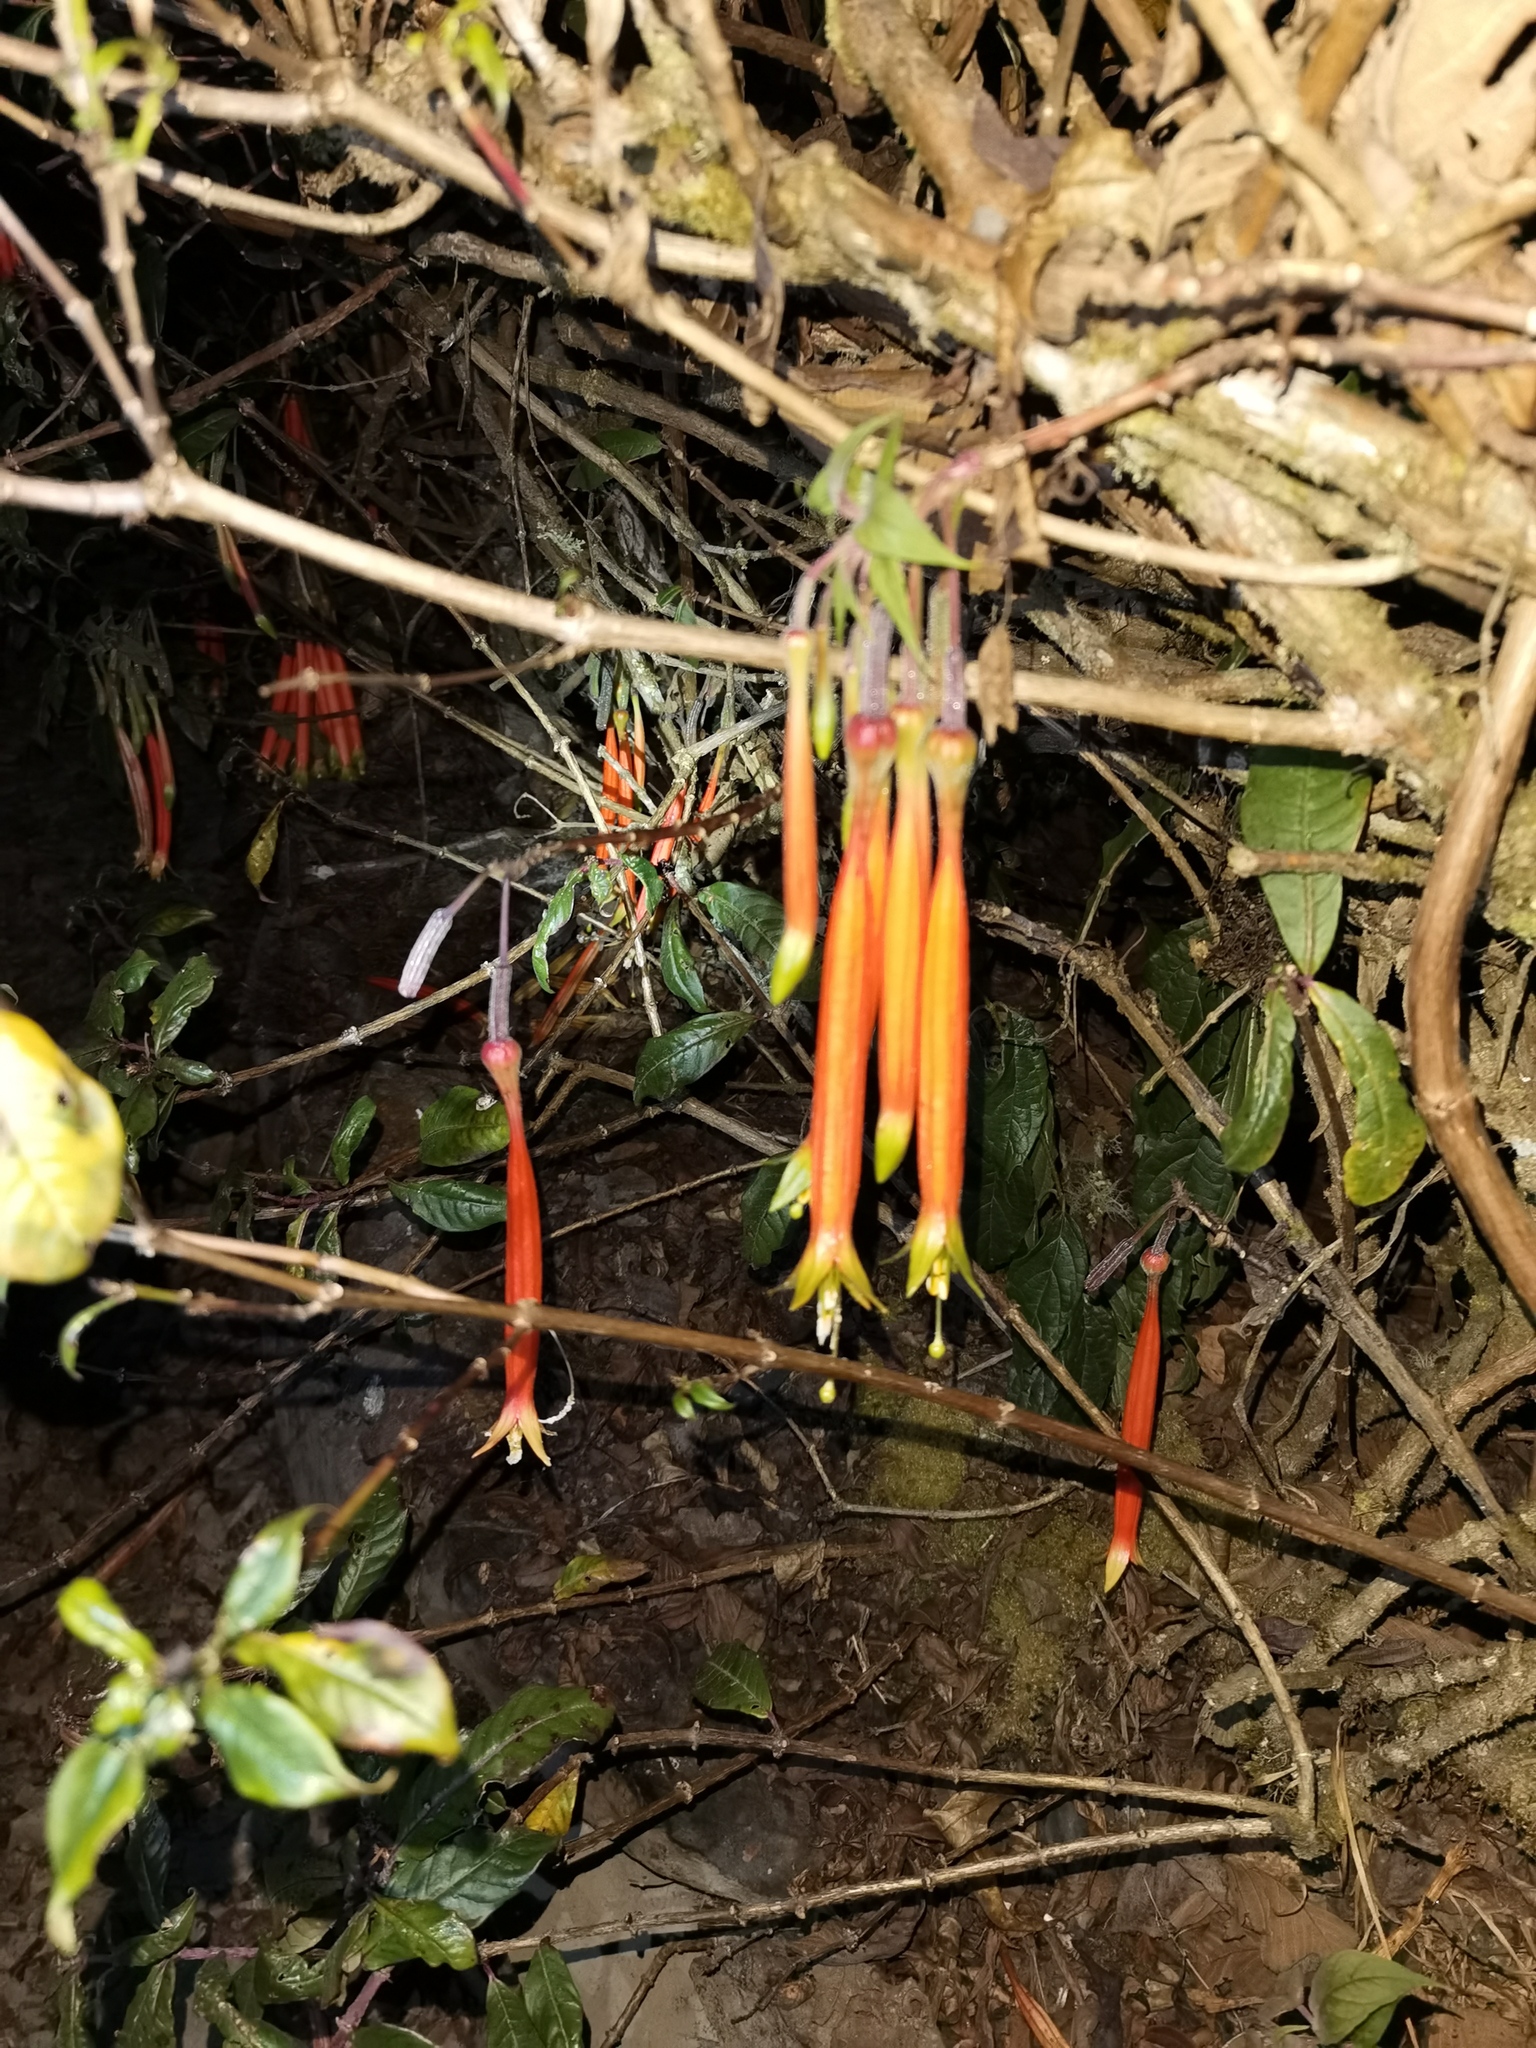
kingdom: Plantae
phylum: Tracheophyta
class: Magnoliopsida
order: Myrtales
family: Onagraceae
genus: Fuchsia
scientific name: Fuchsia inflata
